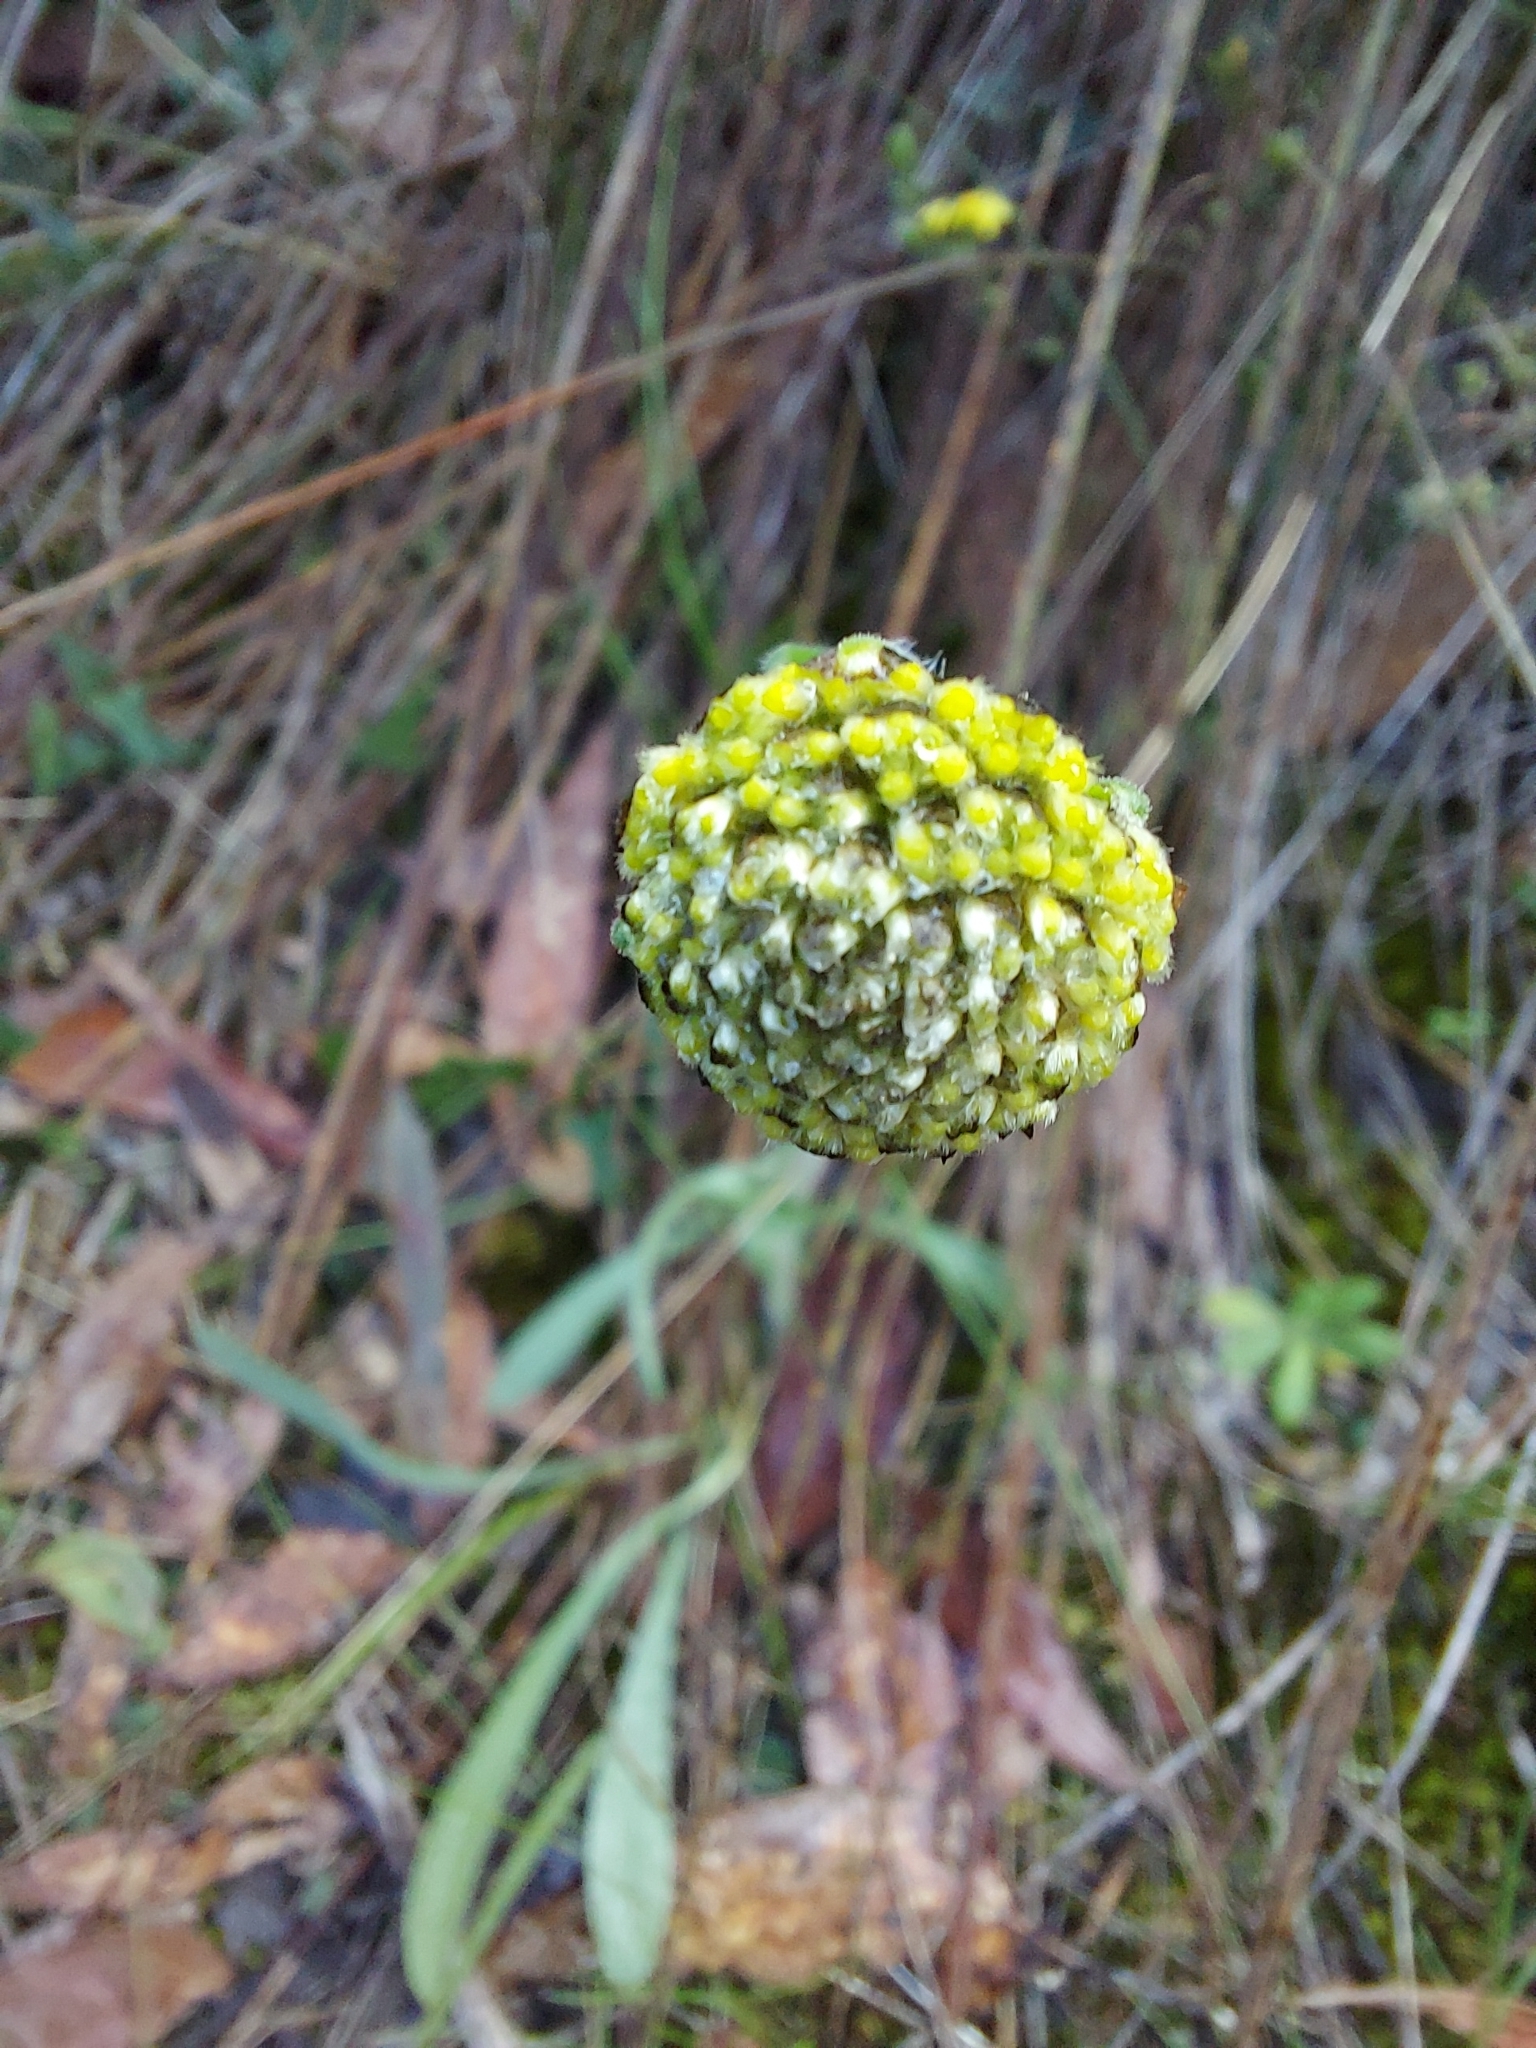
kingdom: Plantae
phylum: Tracheophyta
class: Magnoliopsida
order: Asterales
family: Asteraceae
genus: Craspedia
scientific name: Craspedia variabilis
